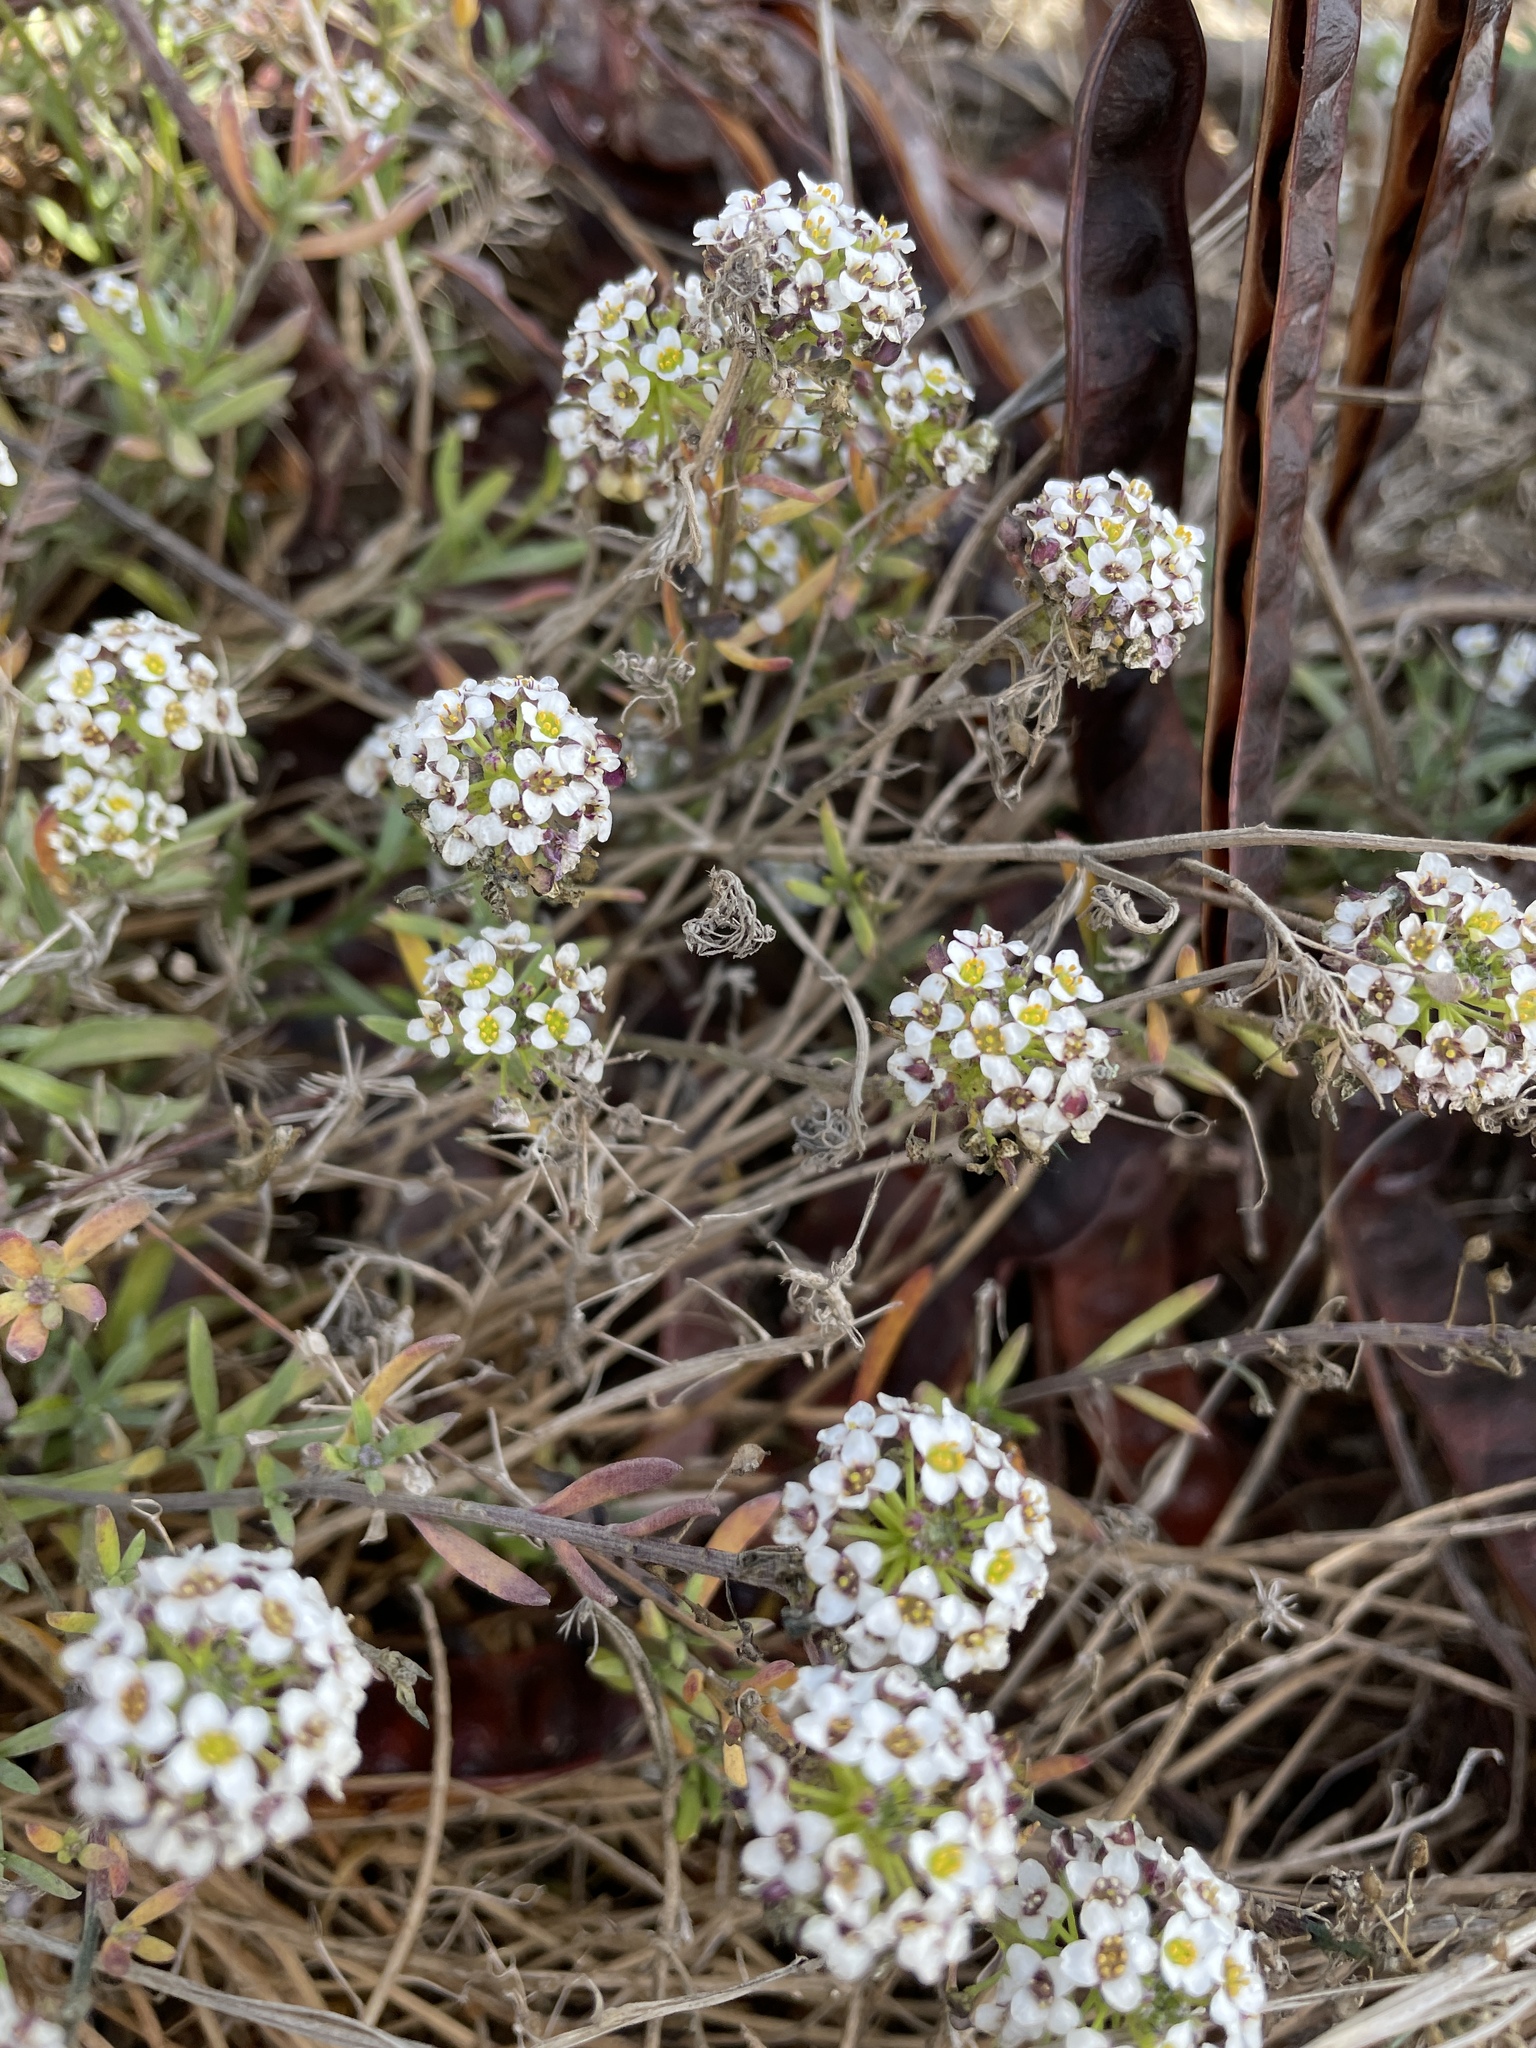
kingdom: Plantae
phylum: Tracheophyta
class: Magnoliopsida
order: Brassicales
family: Brassicaceae
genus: Lobularia
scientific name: Lobularia maritima
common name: Sweet alison
